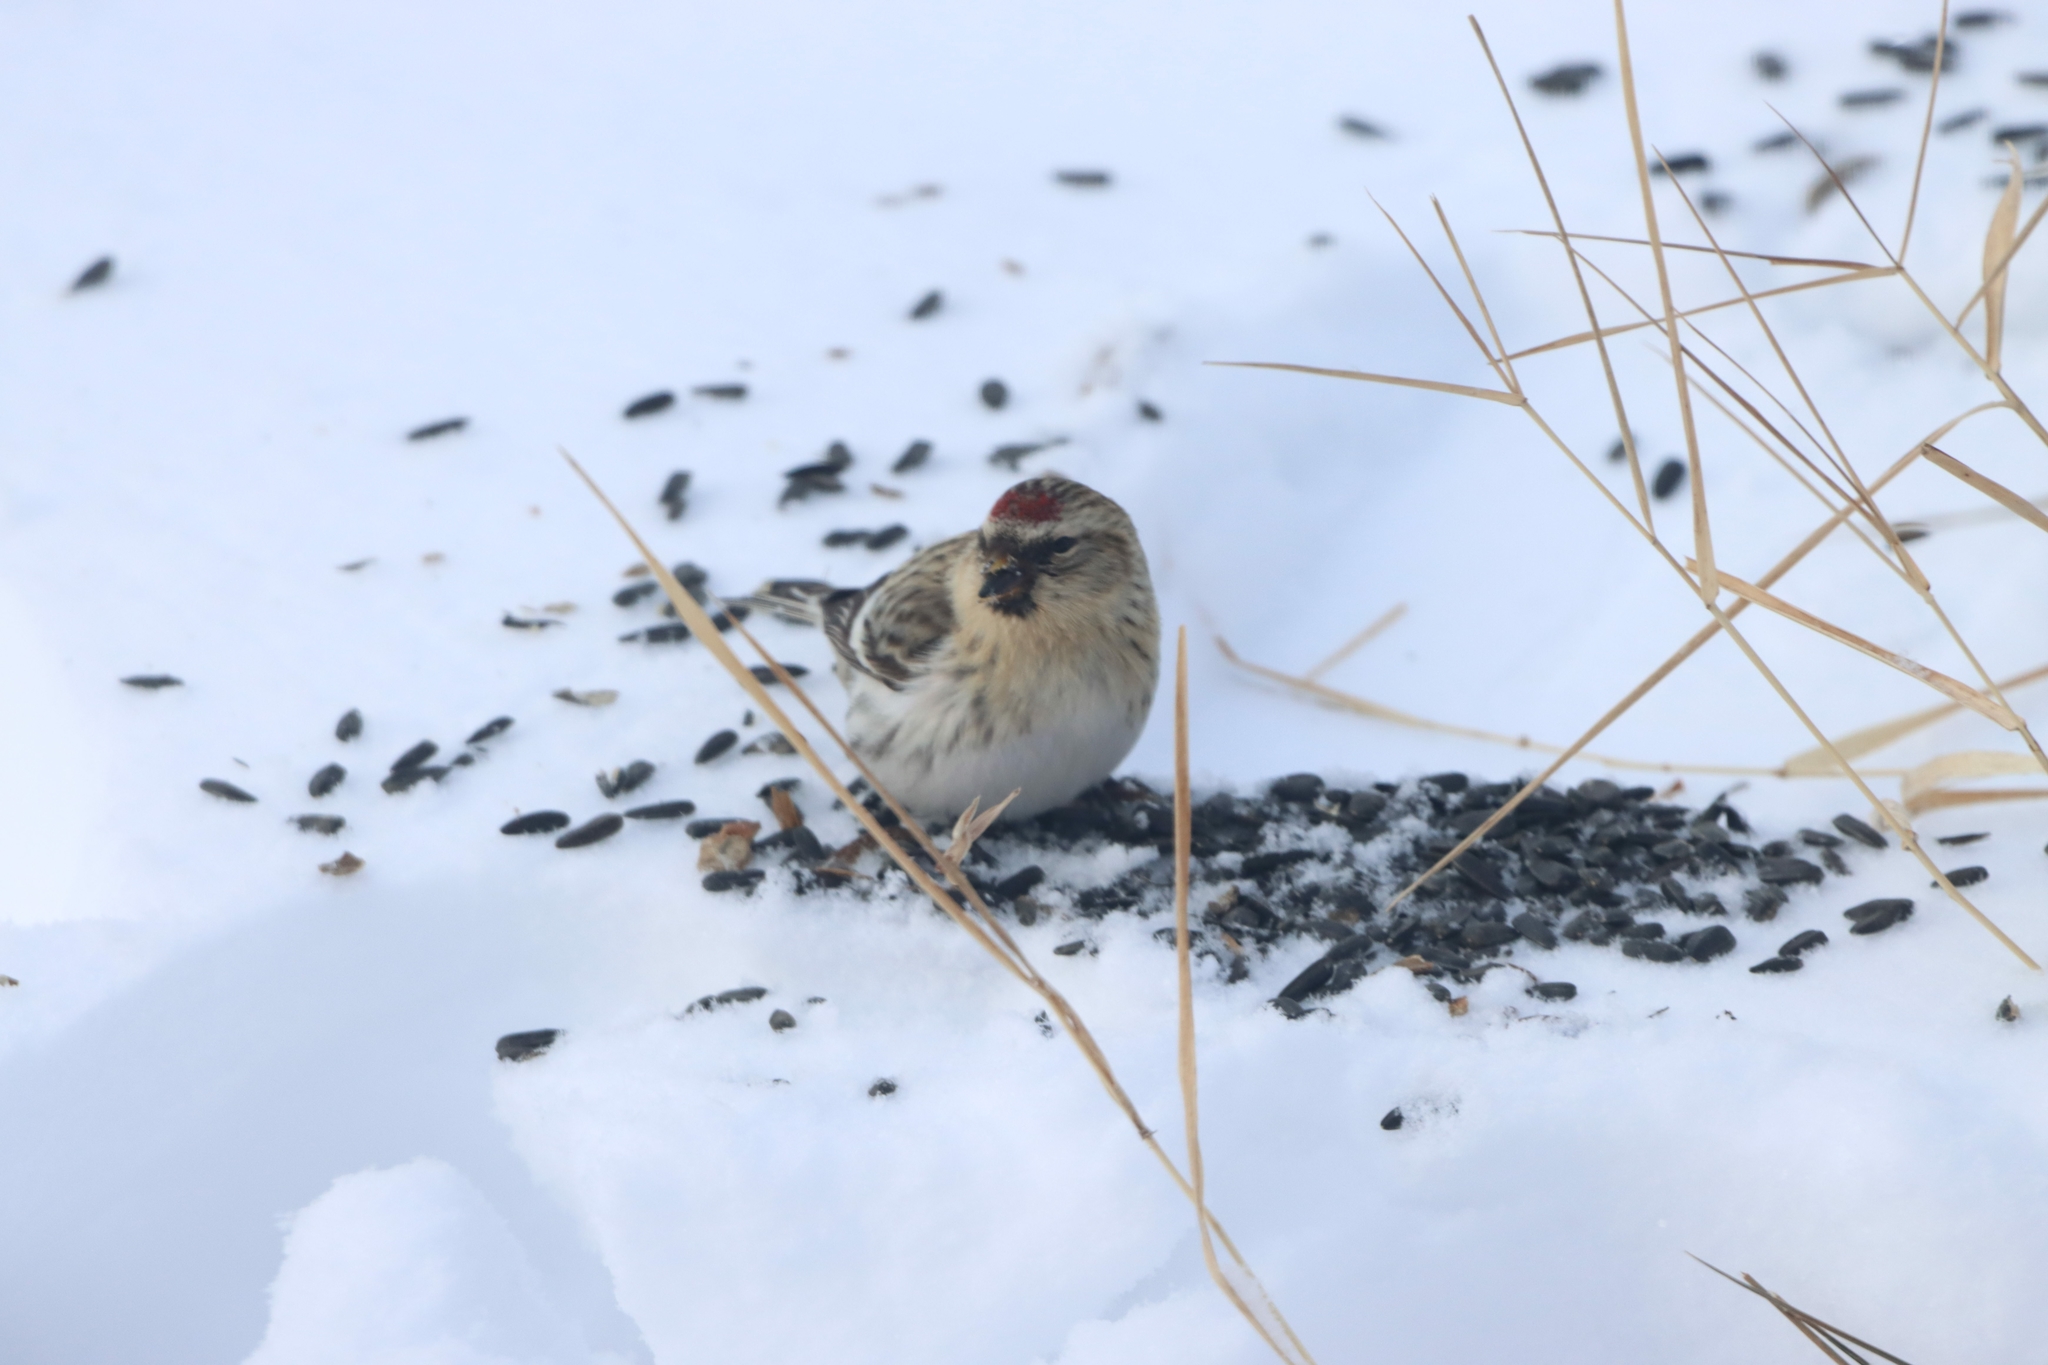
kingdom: Animalia
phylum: Chordata
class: Aves
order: Passeriformes
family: Fringillidae
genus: Acanthis
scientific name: Acanthis flammea
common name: Common redpoll
